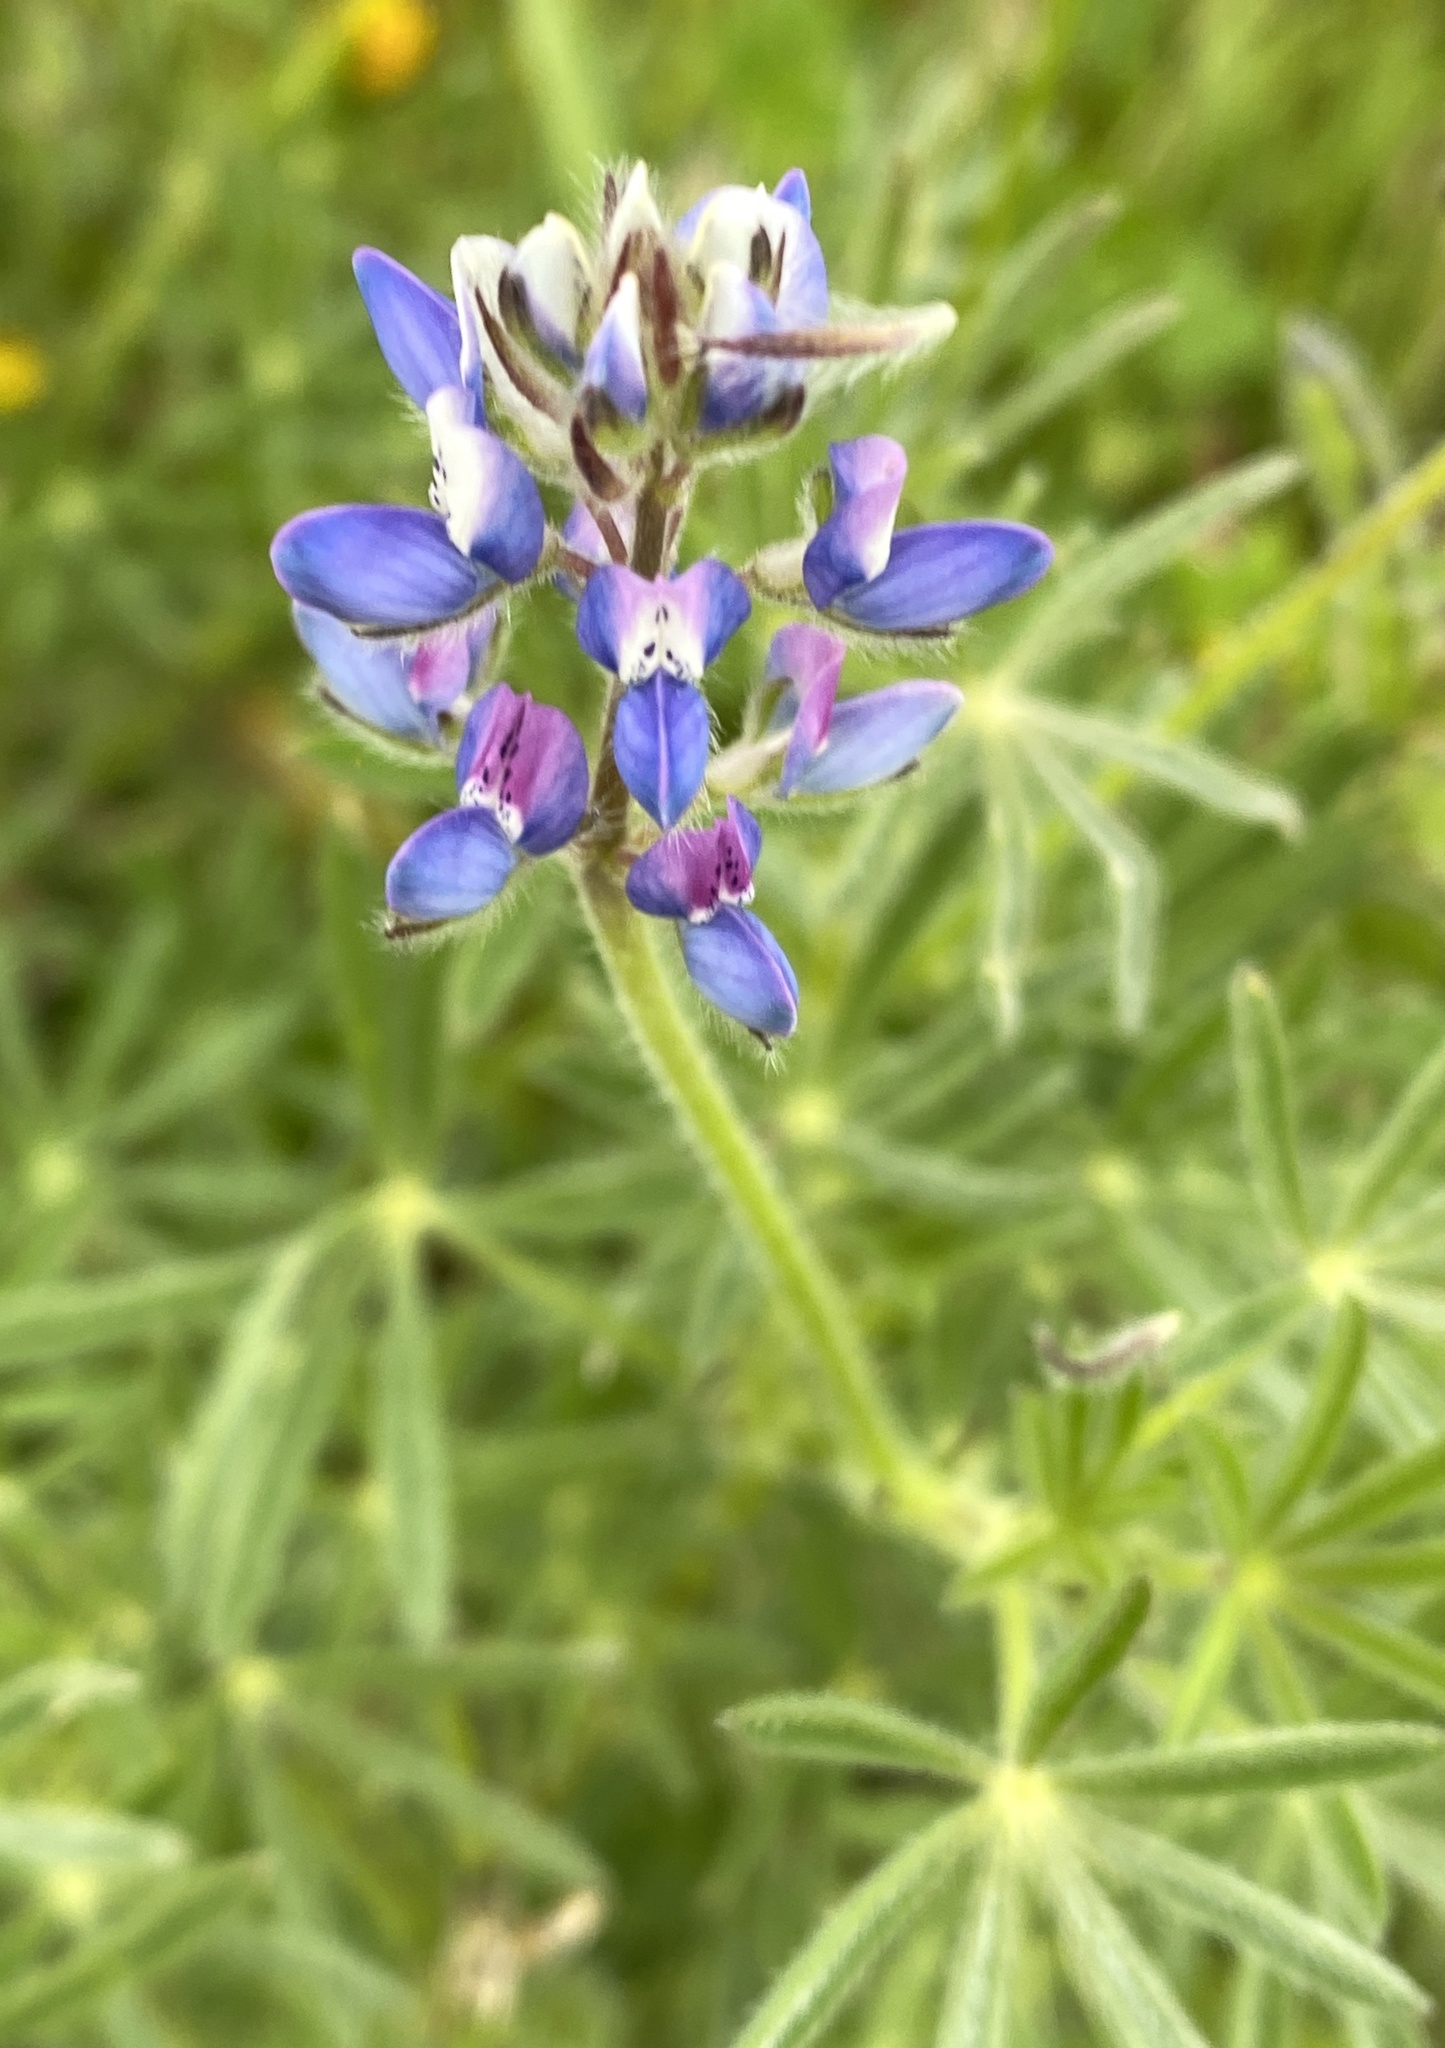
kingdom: Plantae
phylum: Tracheophyta
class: Magnoliopsida
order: Fabales
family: Fabaceae
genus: Lupinus
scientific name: Lupinus bicolor
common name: Miniature lupine
